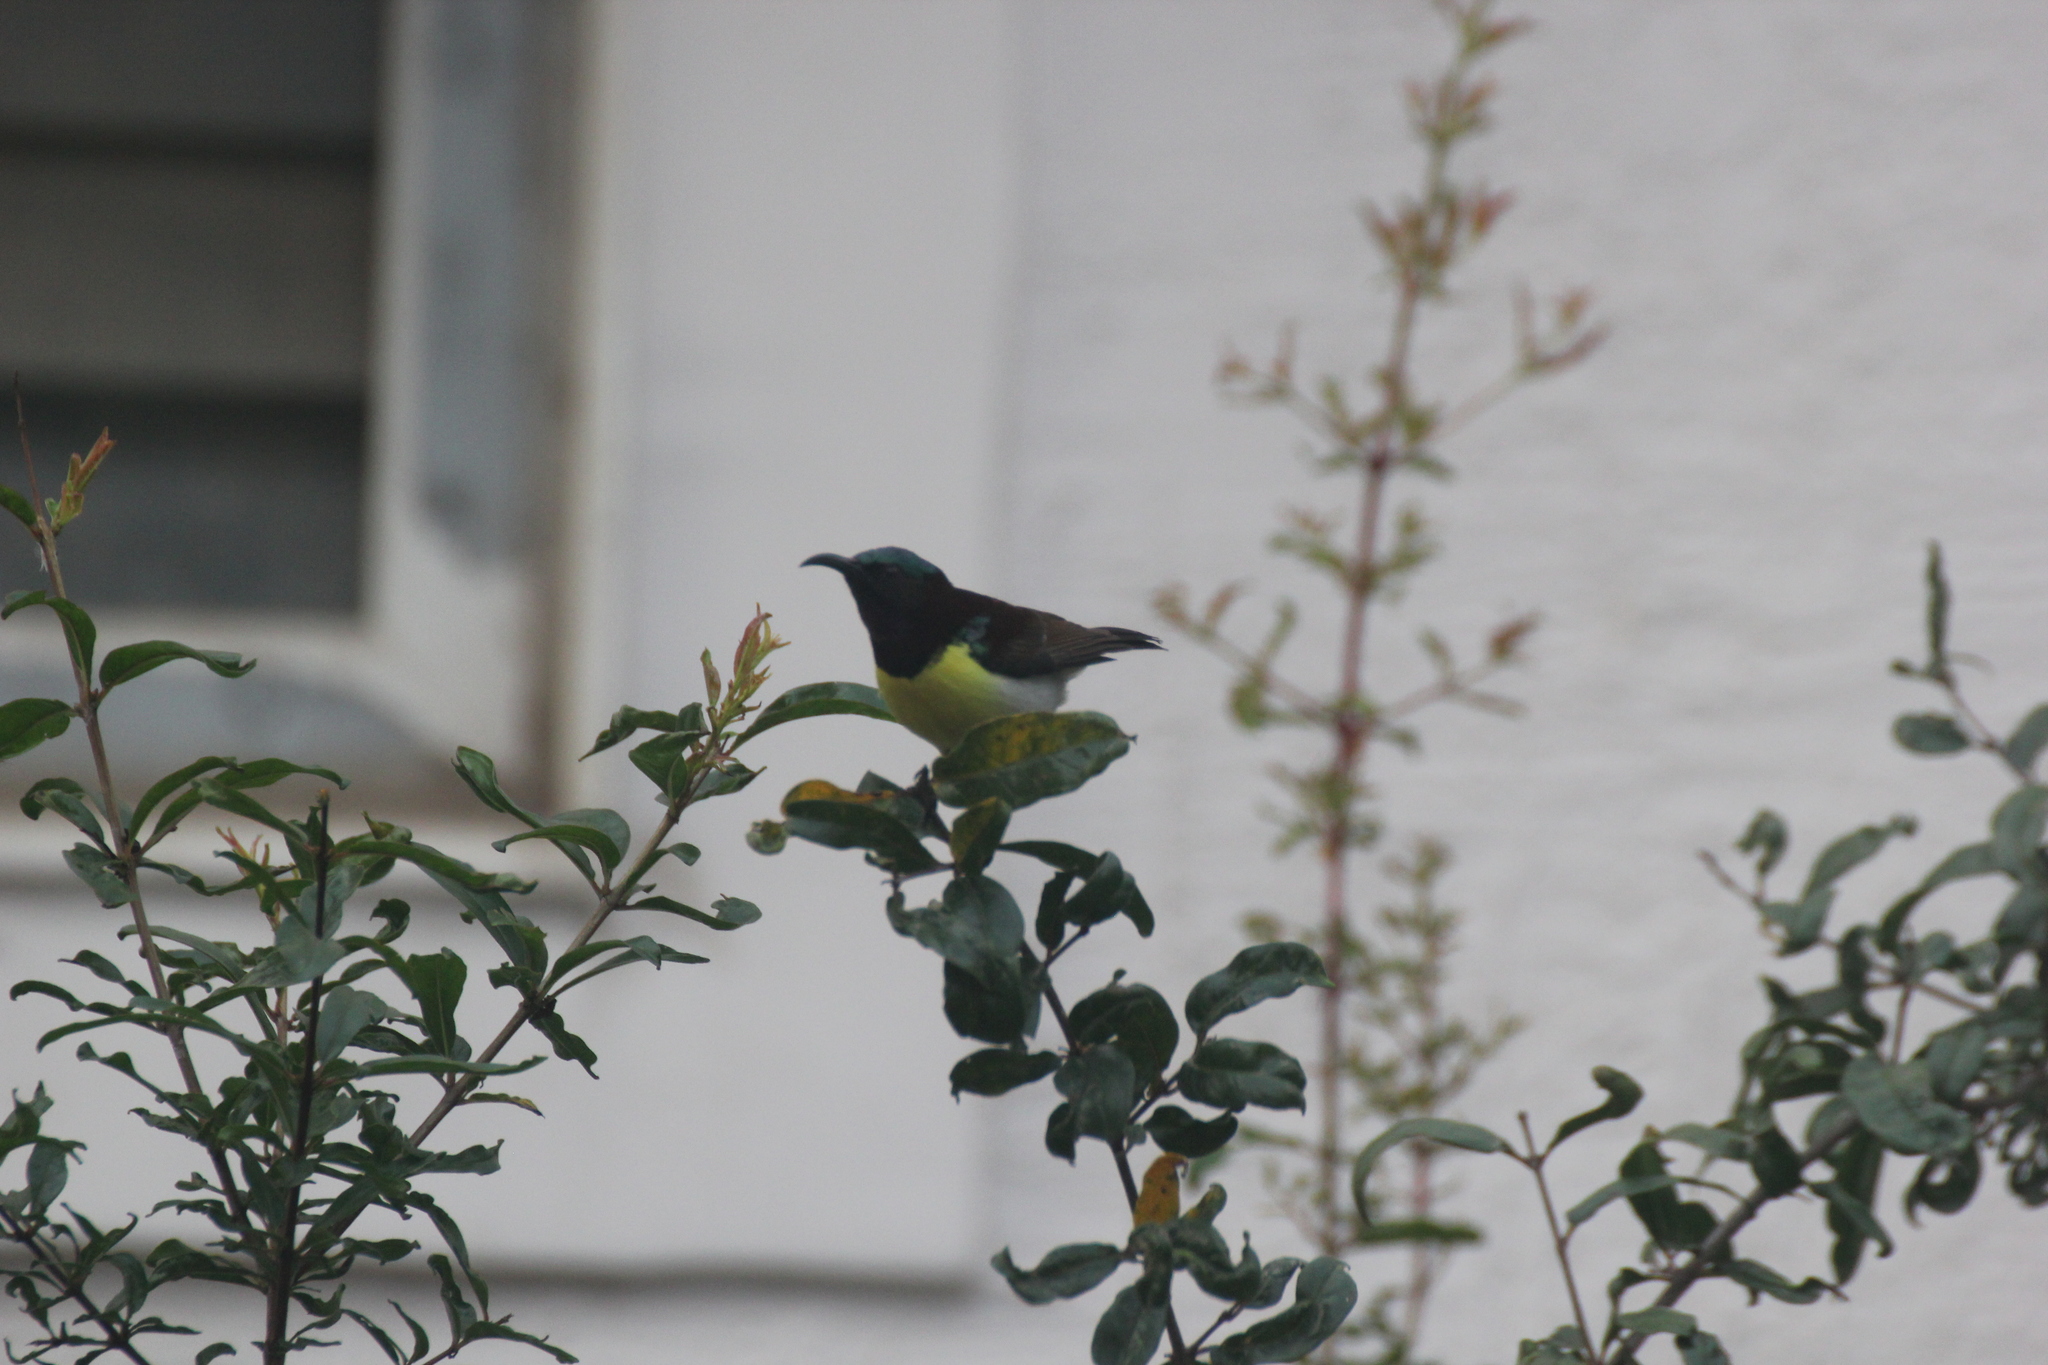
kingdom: Animalia
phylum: Chordata
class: Aves
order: Passeriformes
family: Nectariniidae
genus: Leptocoma
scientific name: Leptocoma zeylonica
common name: Purple-rumped sunbird
